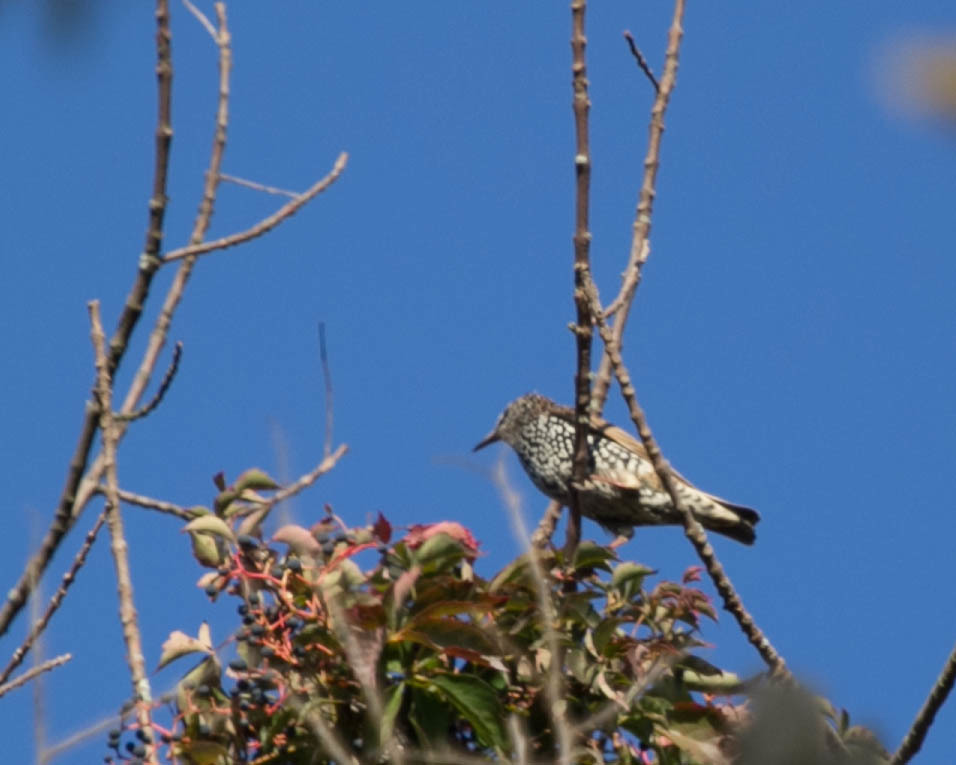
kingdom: Animalia
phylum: Chordata
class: Aves
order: Passeriformes
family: Sturnidae
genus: Sturnus
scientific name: Sturnus vulgaris
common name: Common starling
